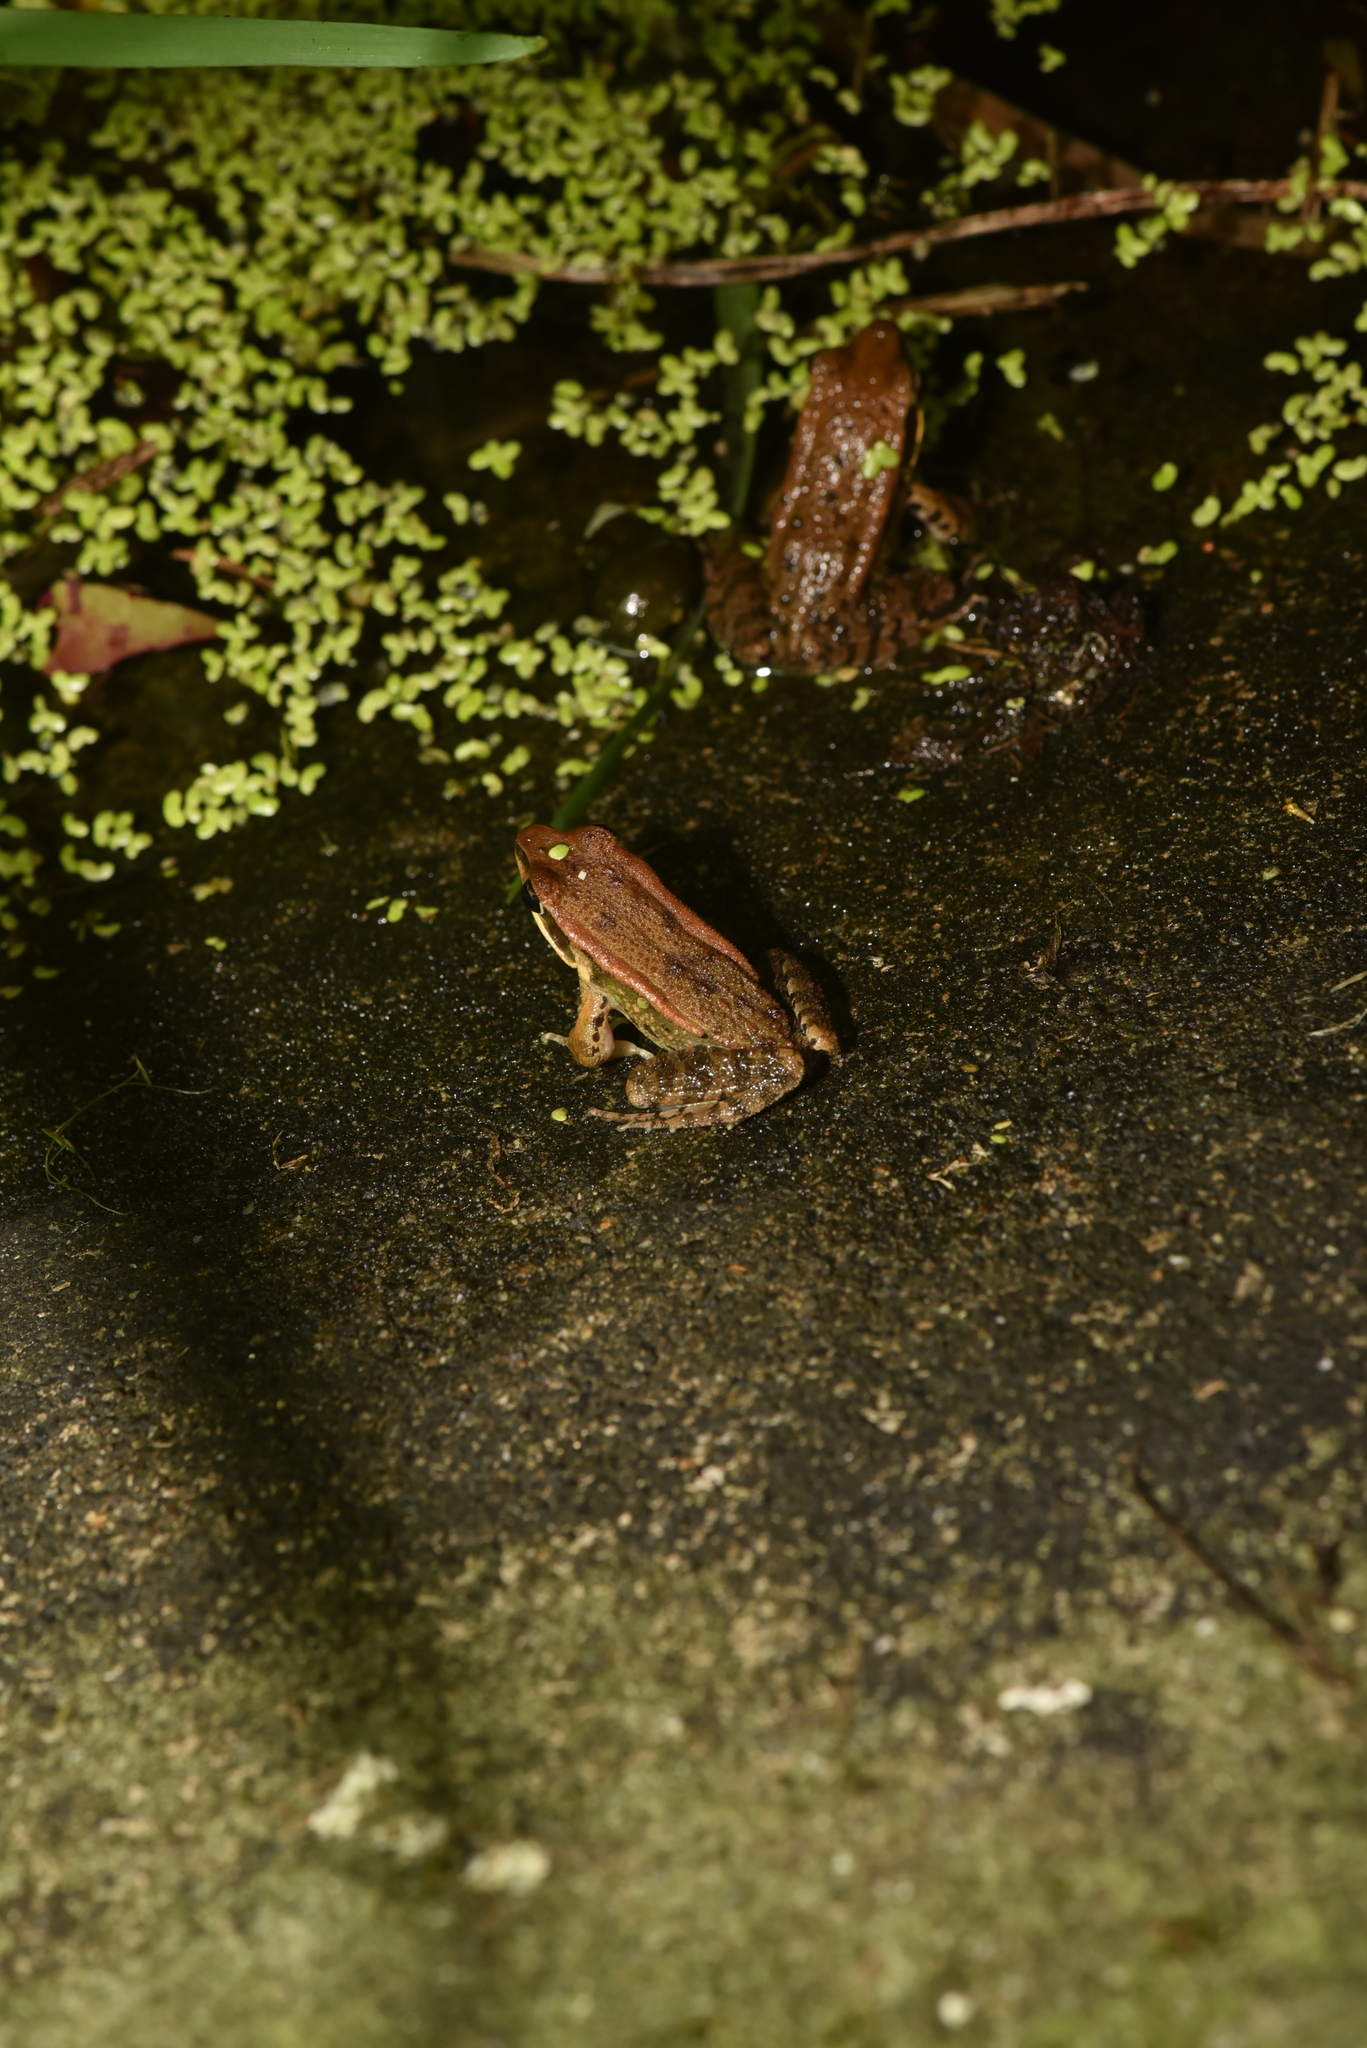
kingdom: Animalia
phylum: Chordata
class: Amphibia
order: Anura
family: Ranidae
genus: Hylarana
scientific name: Hylarana latouchii
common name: Broad-folded frog
